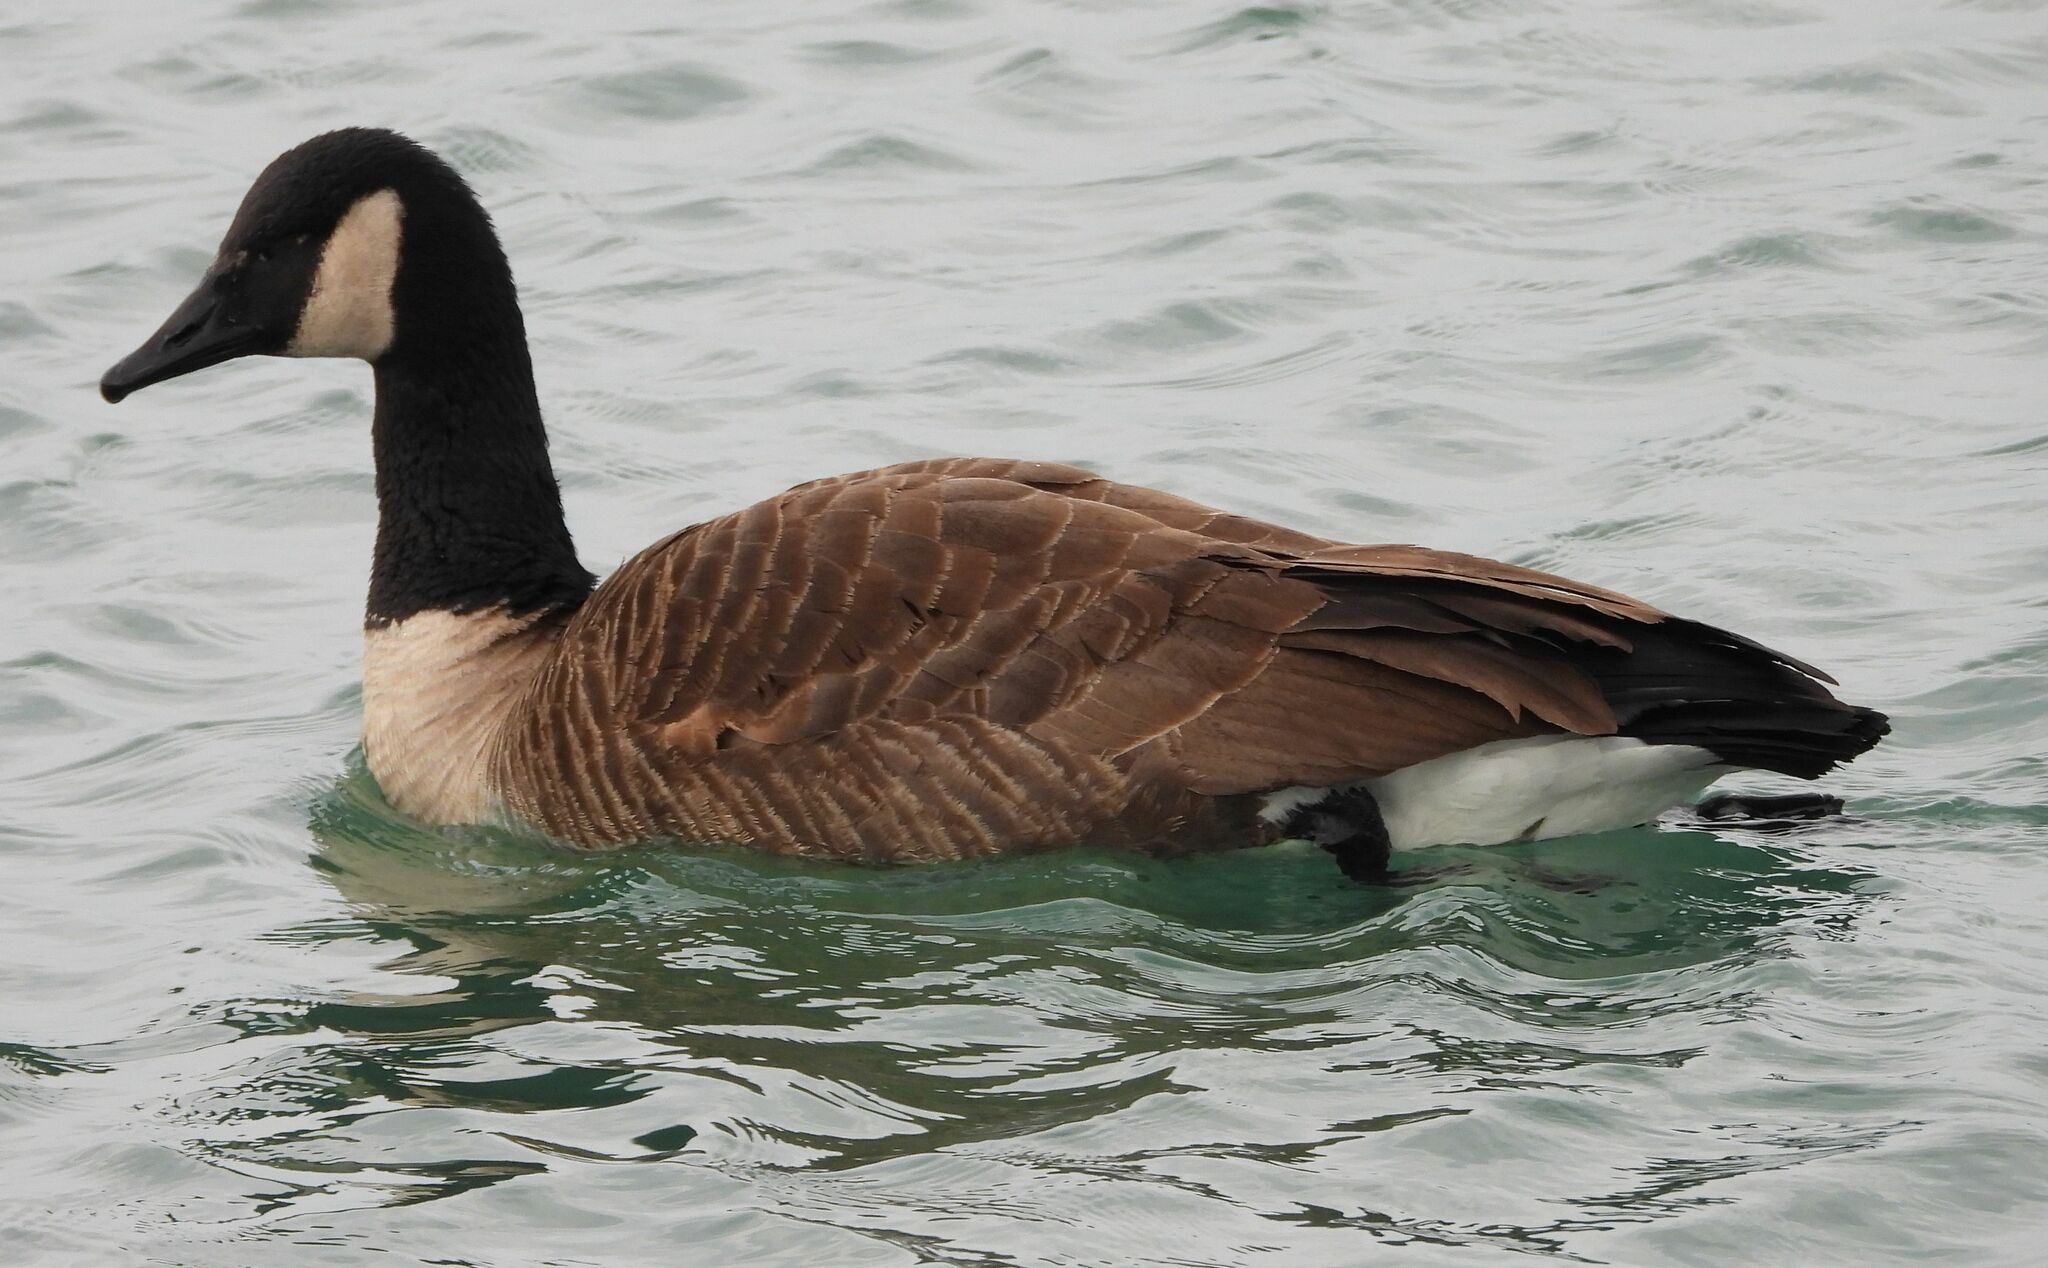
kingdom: Animalia
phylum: Chordata
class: Aves
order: Anseriformes
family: Anatidae
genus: Branta
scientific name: Branta canadensis
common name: Canada goose
